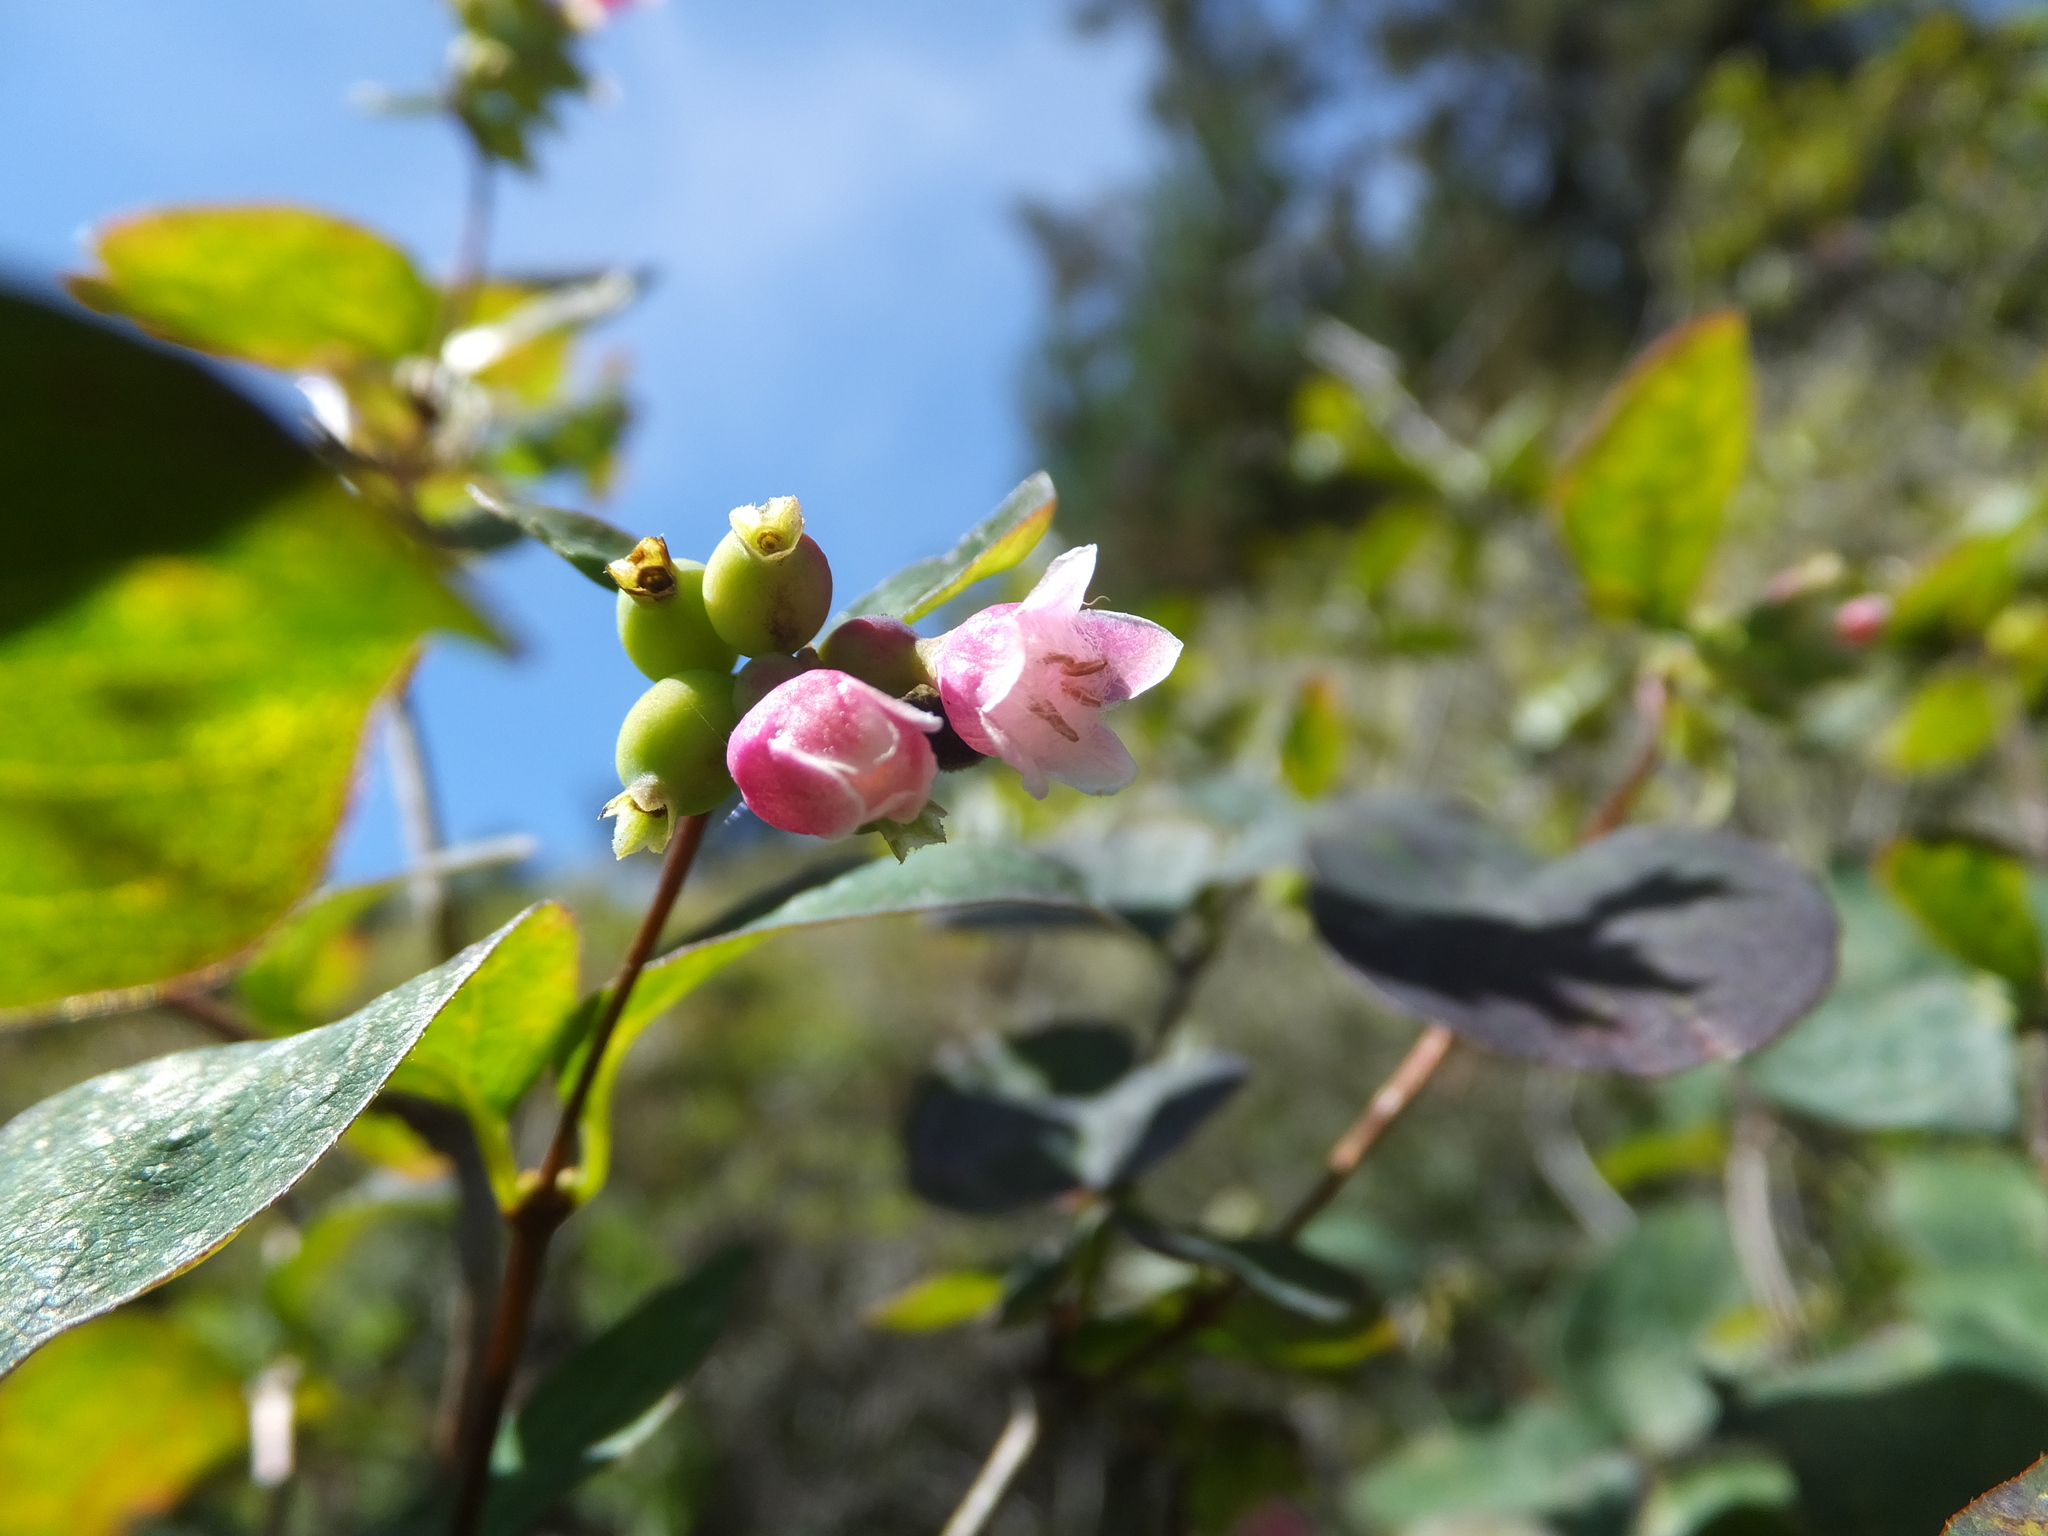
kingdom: Plantae
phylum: Tracheophyta
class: Magnoliopsida
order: Dipsacales
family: Caprifoliaceae
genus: Symphoricarpos
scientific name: Symphoricarpos albus
